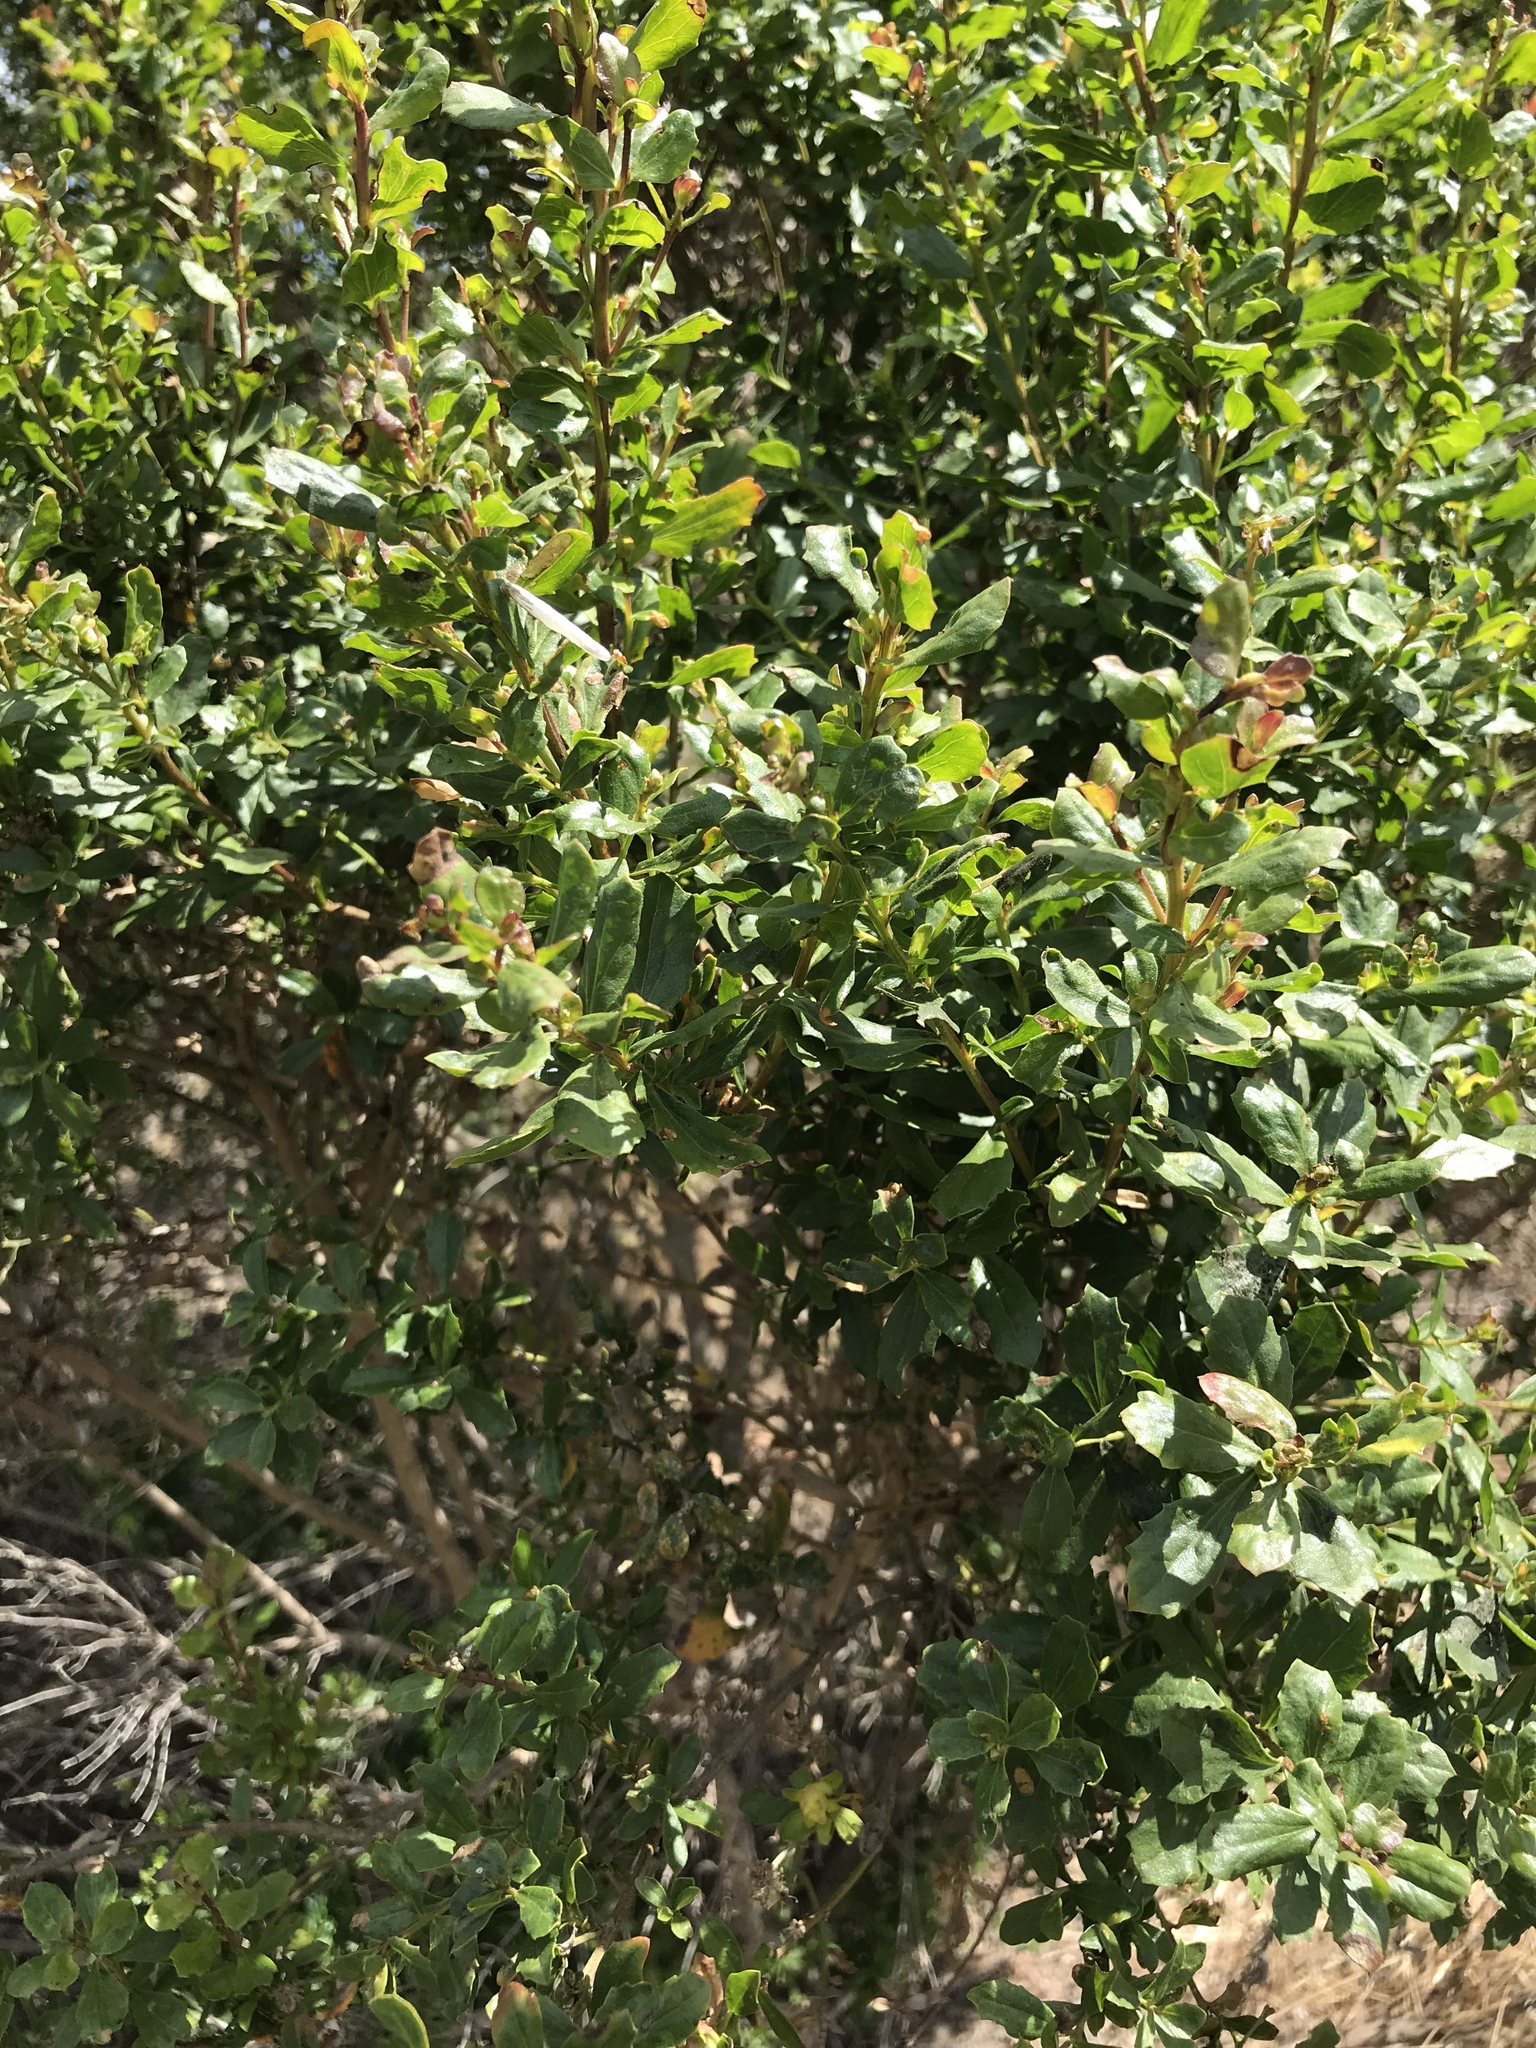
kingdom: Plantae
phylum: Tracheophyta
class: Magnoliopsida
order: Asterales
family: Asteraceae
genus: Baccharis
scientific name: Baccharis pilularis
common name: Coyotebrush
